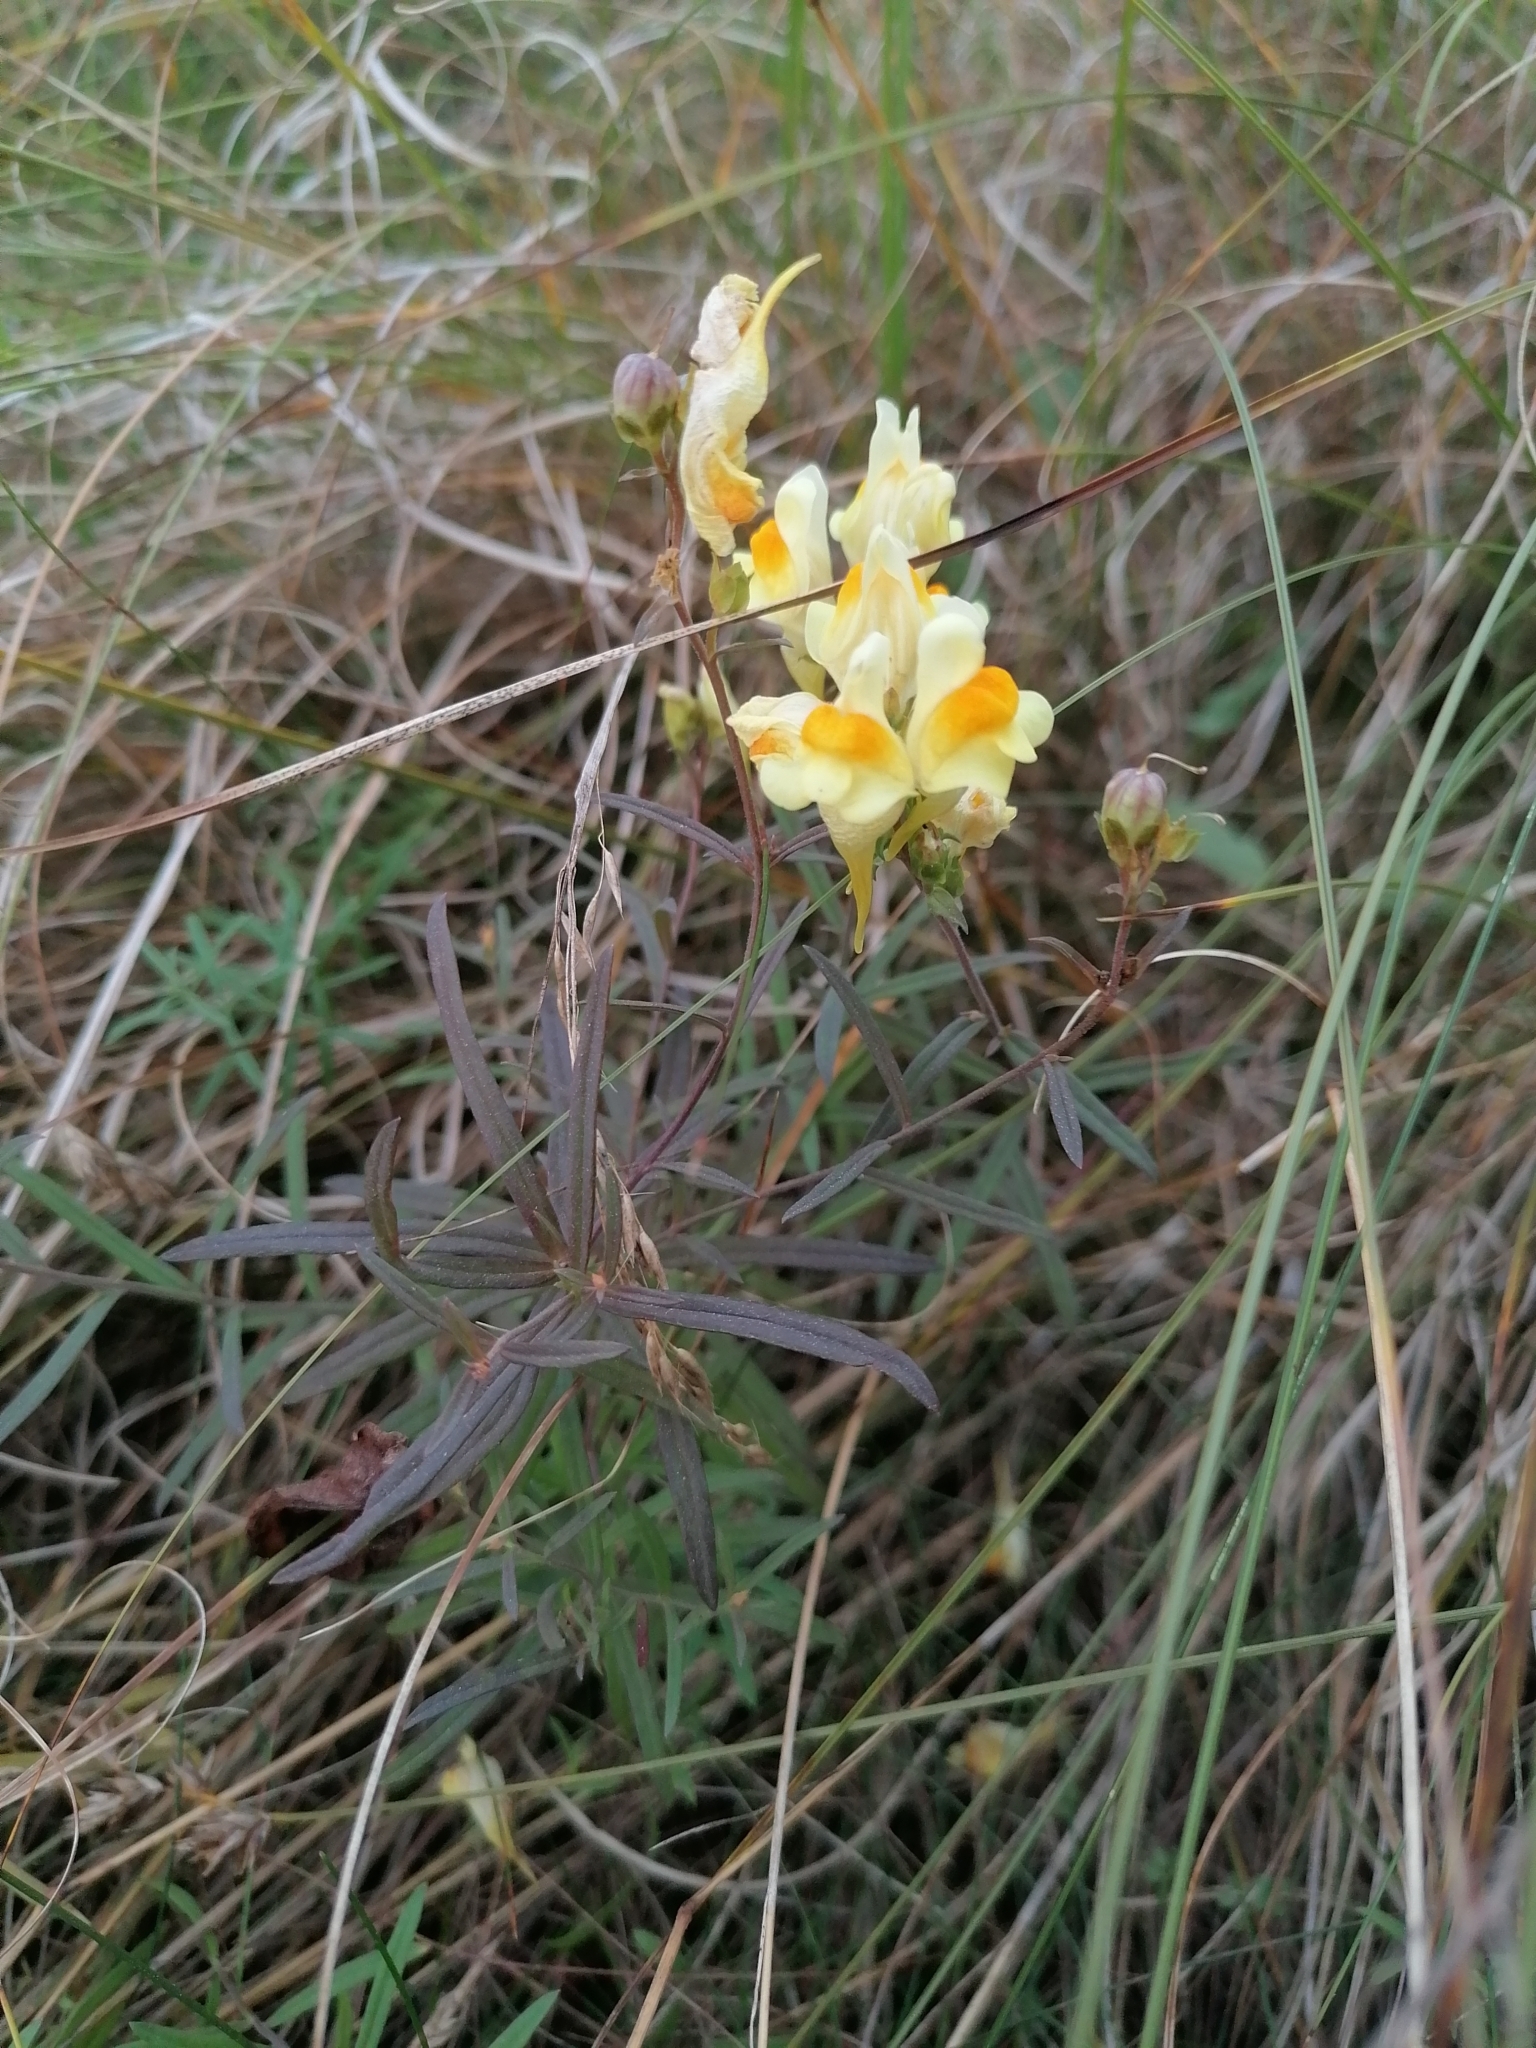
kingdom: Plantae
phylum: Tracheophyta
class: Magnoliopsida
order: Lamiales
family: Plantaginaceae
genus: Linaria
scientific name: Linaria vulgaris
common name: Butter and eggs
